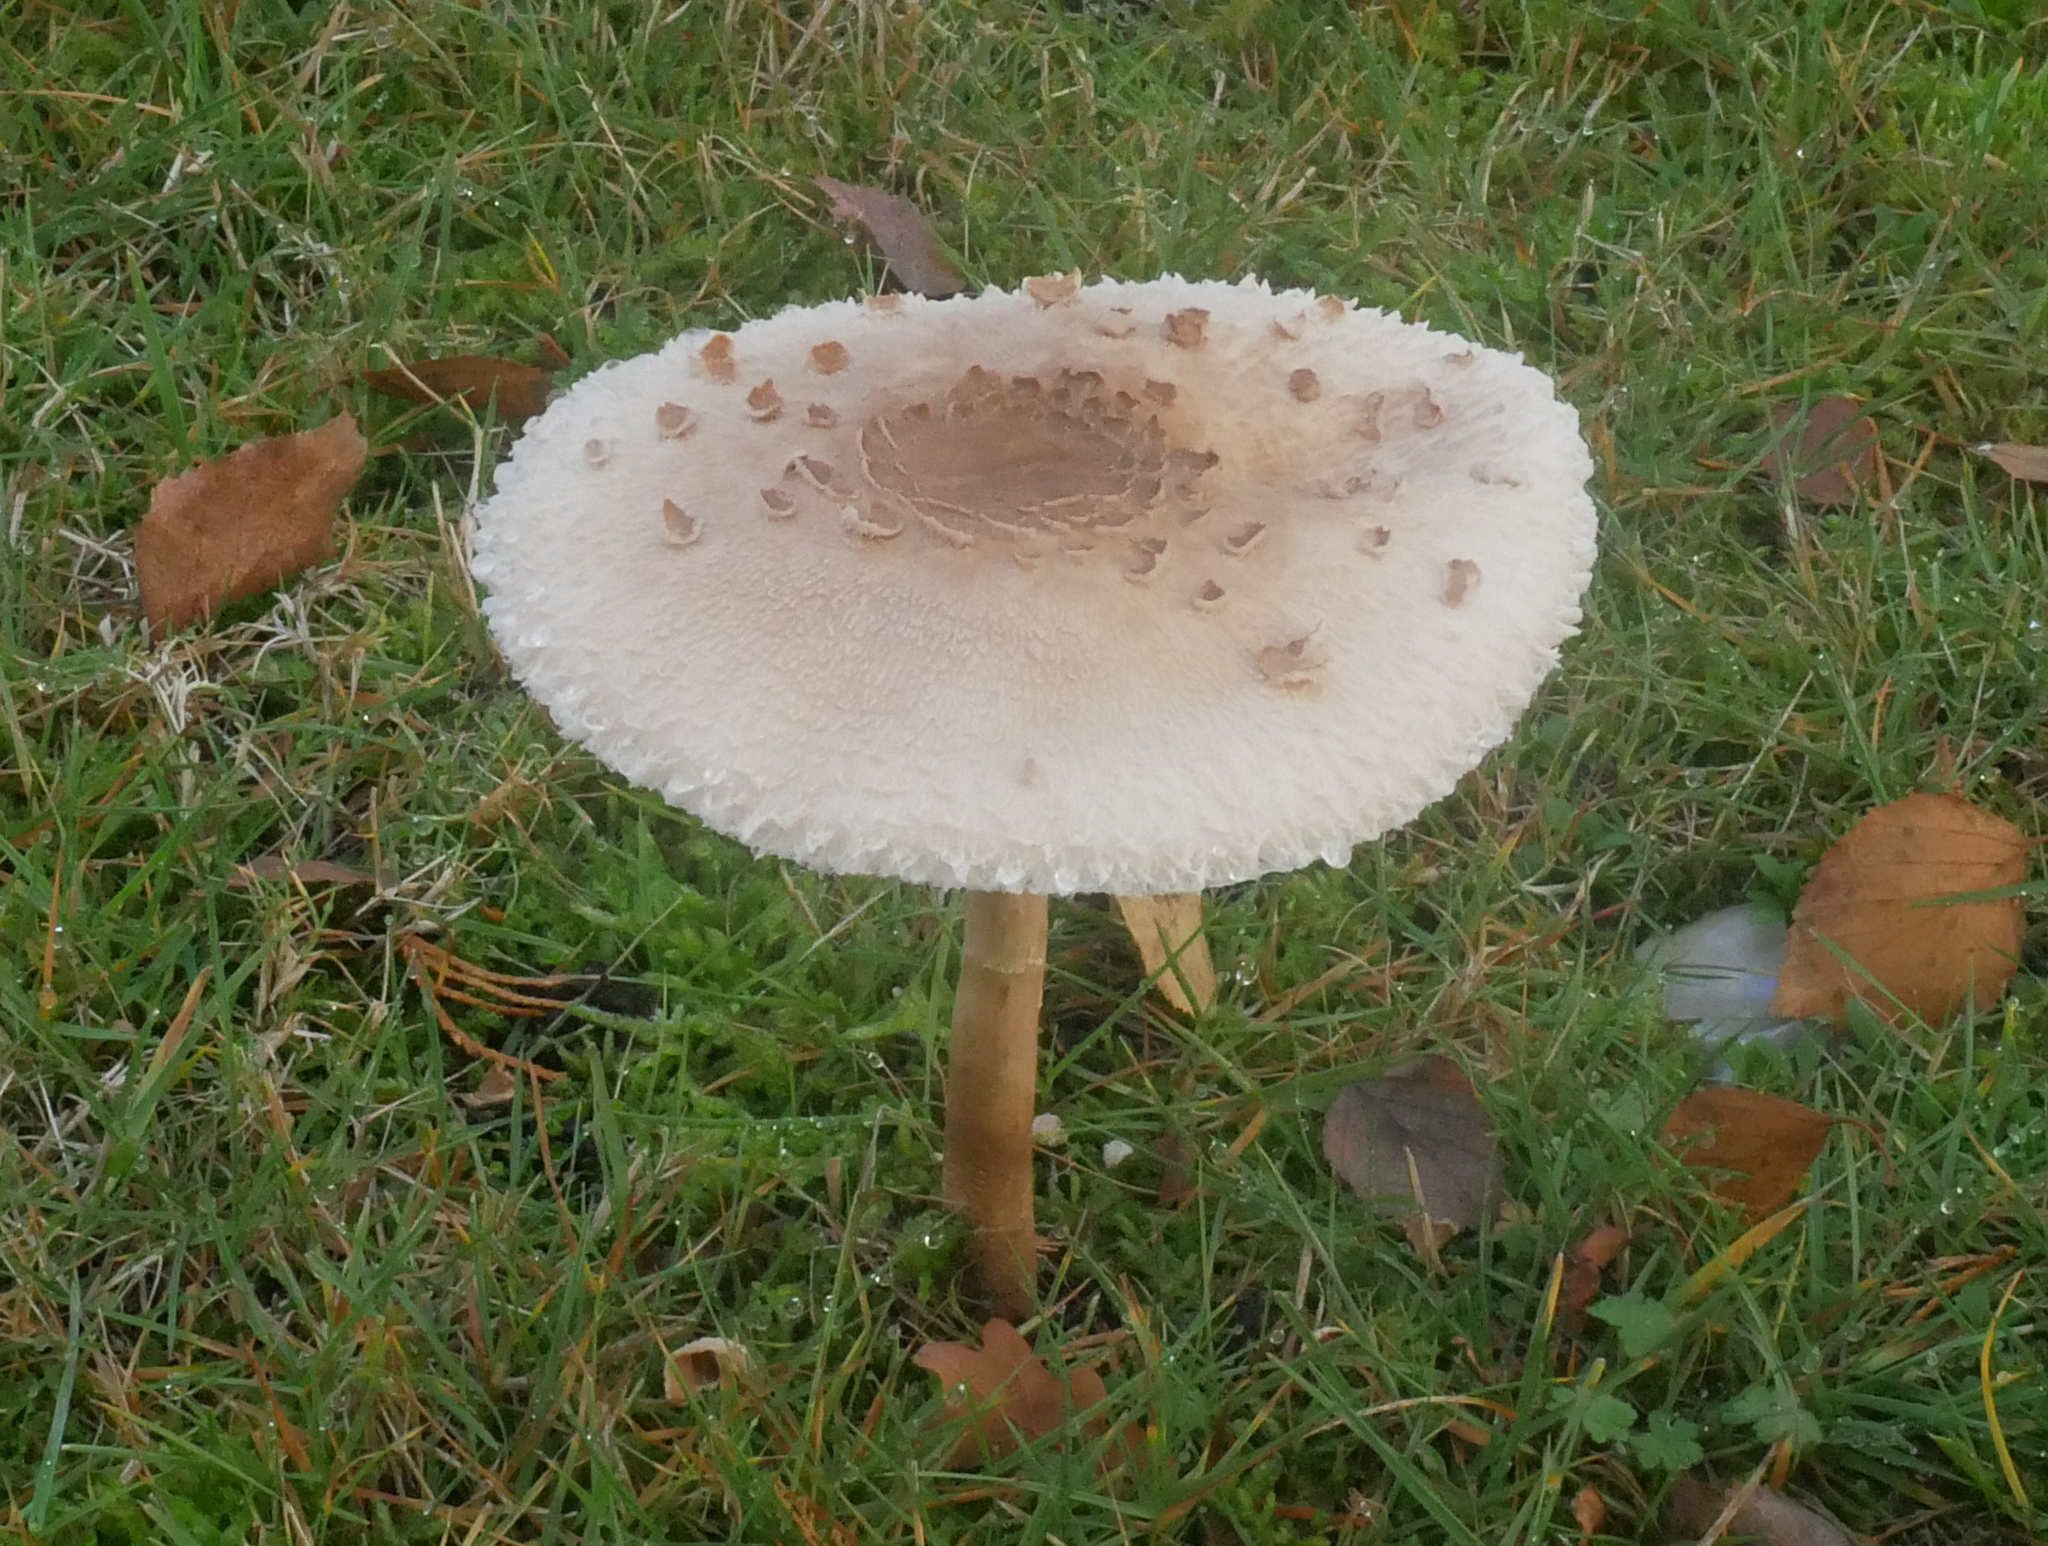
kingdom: Fungi
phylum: Basidiomycota
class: Agaricomycetes
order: Agaricales
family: Agaricaceae
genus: Macrolepiota
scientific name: Macrolepiota procera
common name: Parasol
